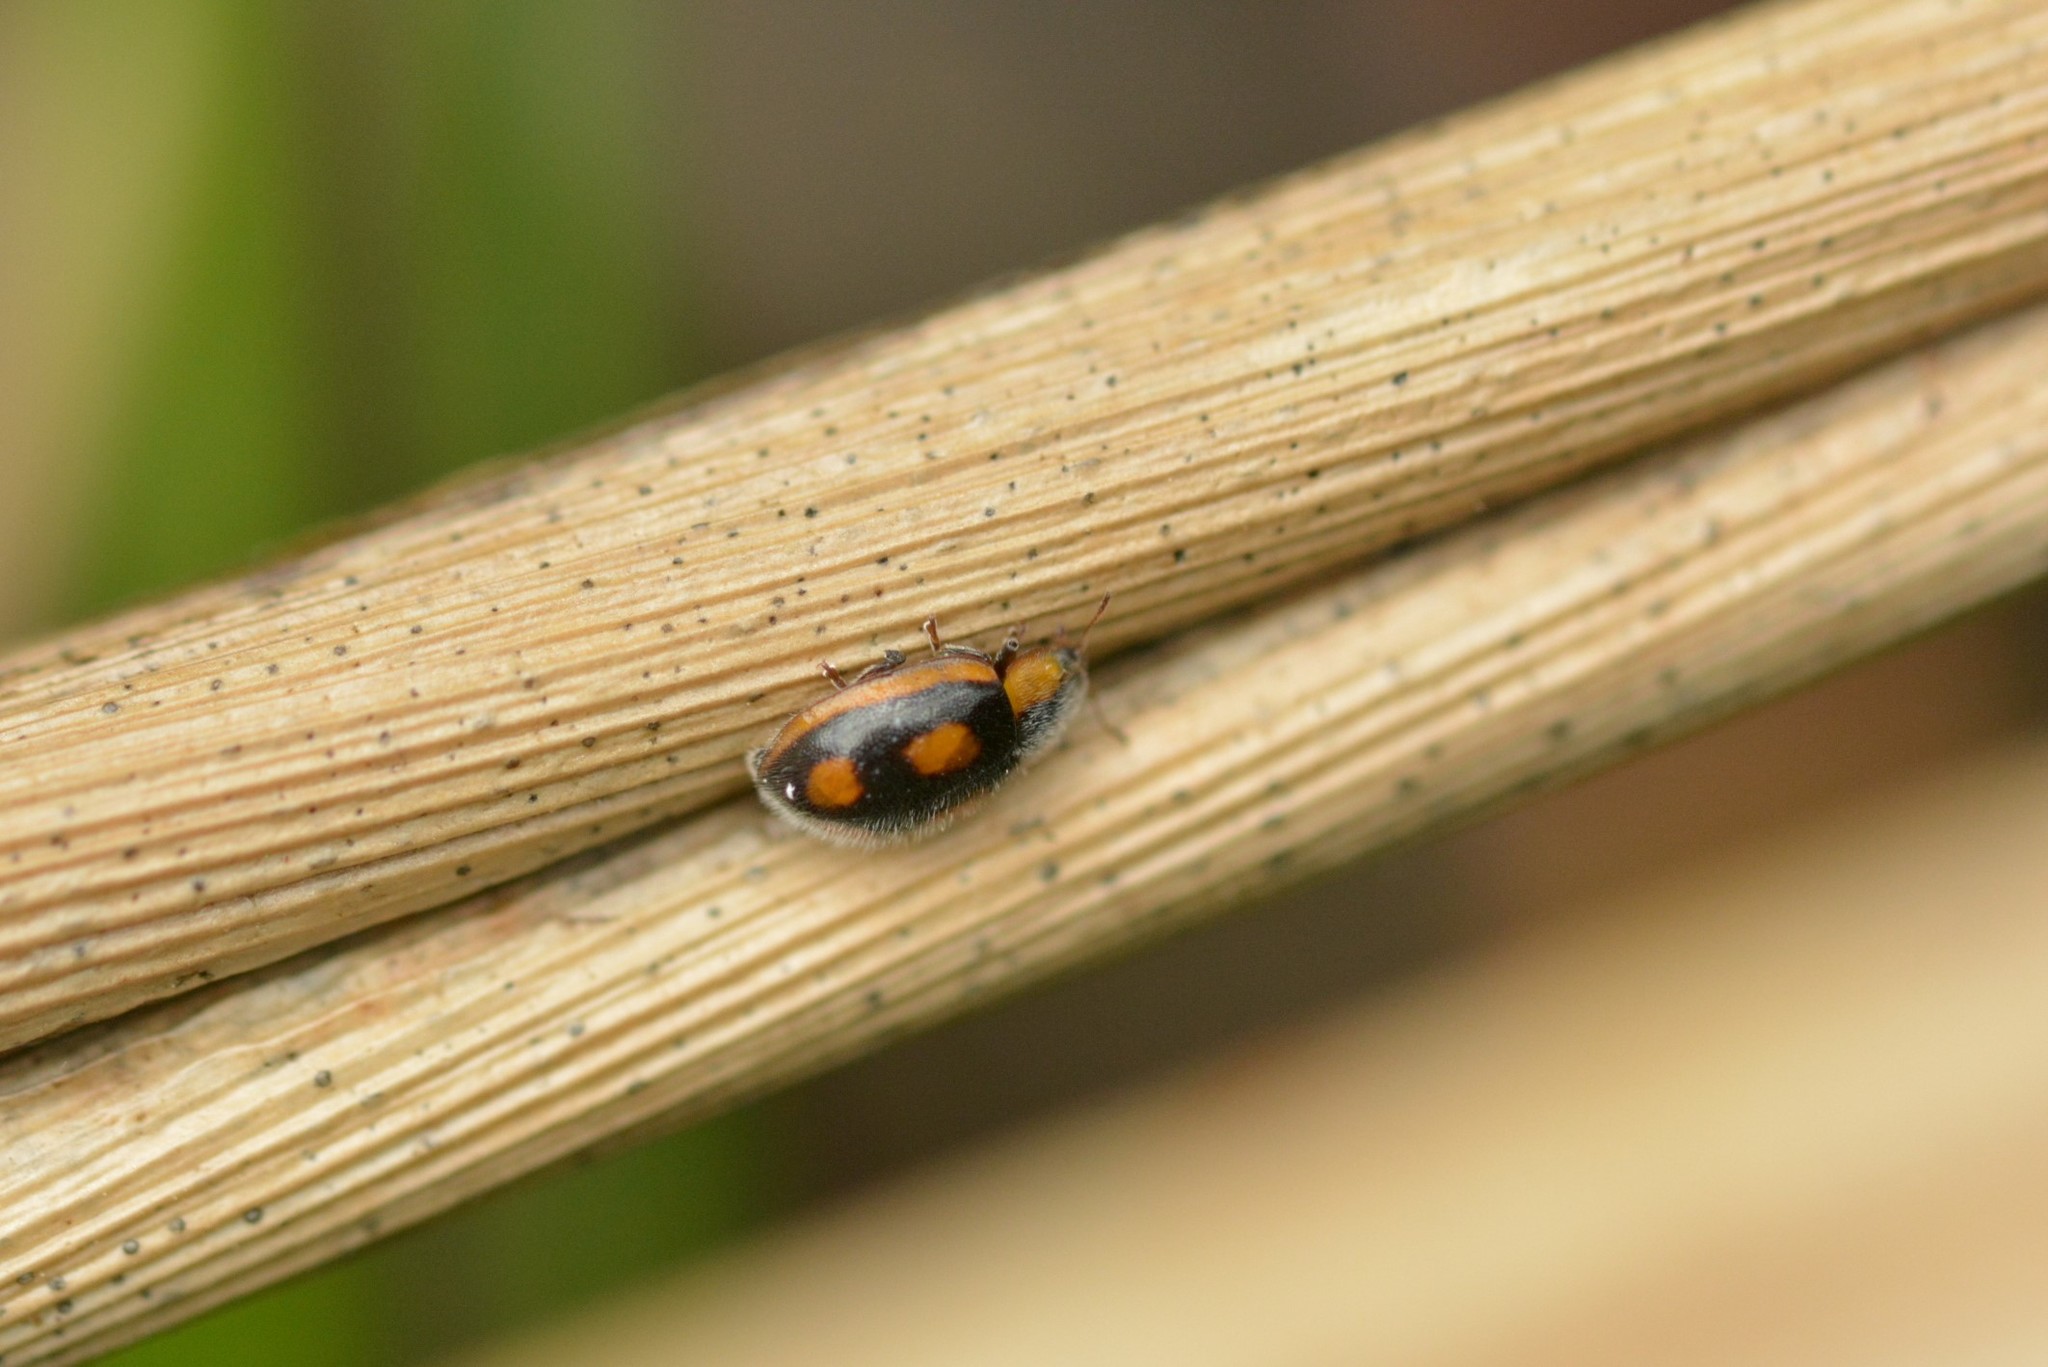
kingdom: Animalia
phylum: Arthropoda
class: Insecta
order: Coleoptera
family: Coccinellidae
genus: Hoangus
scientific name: Hoangus
